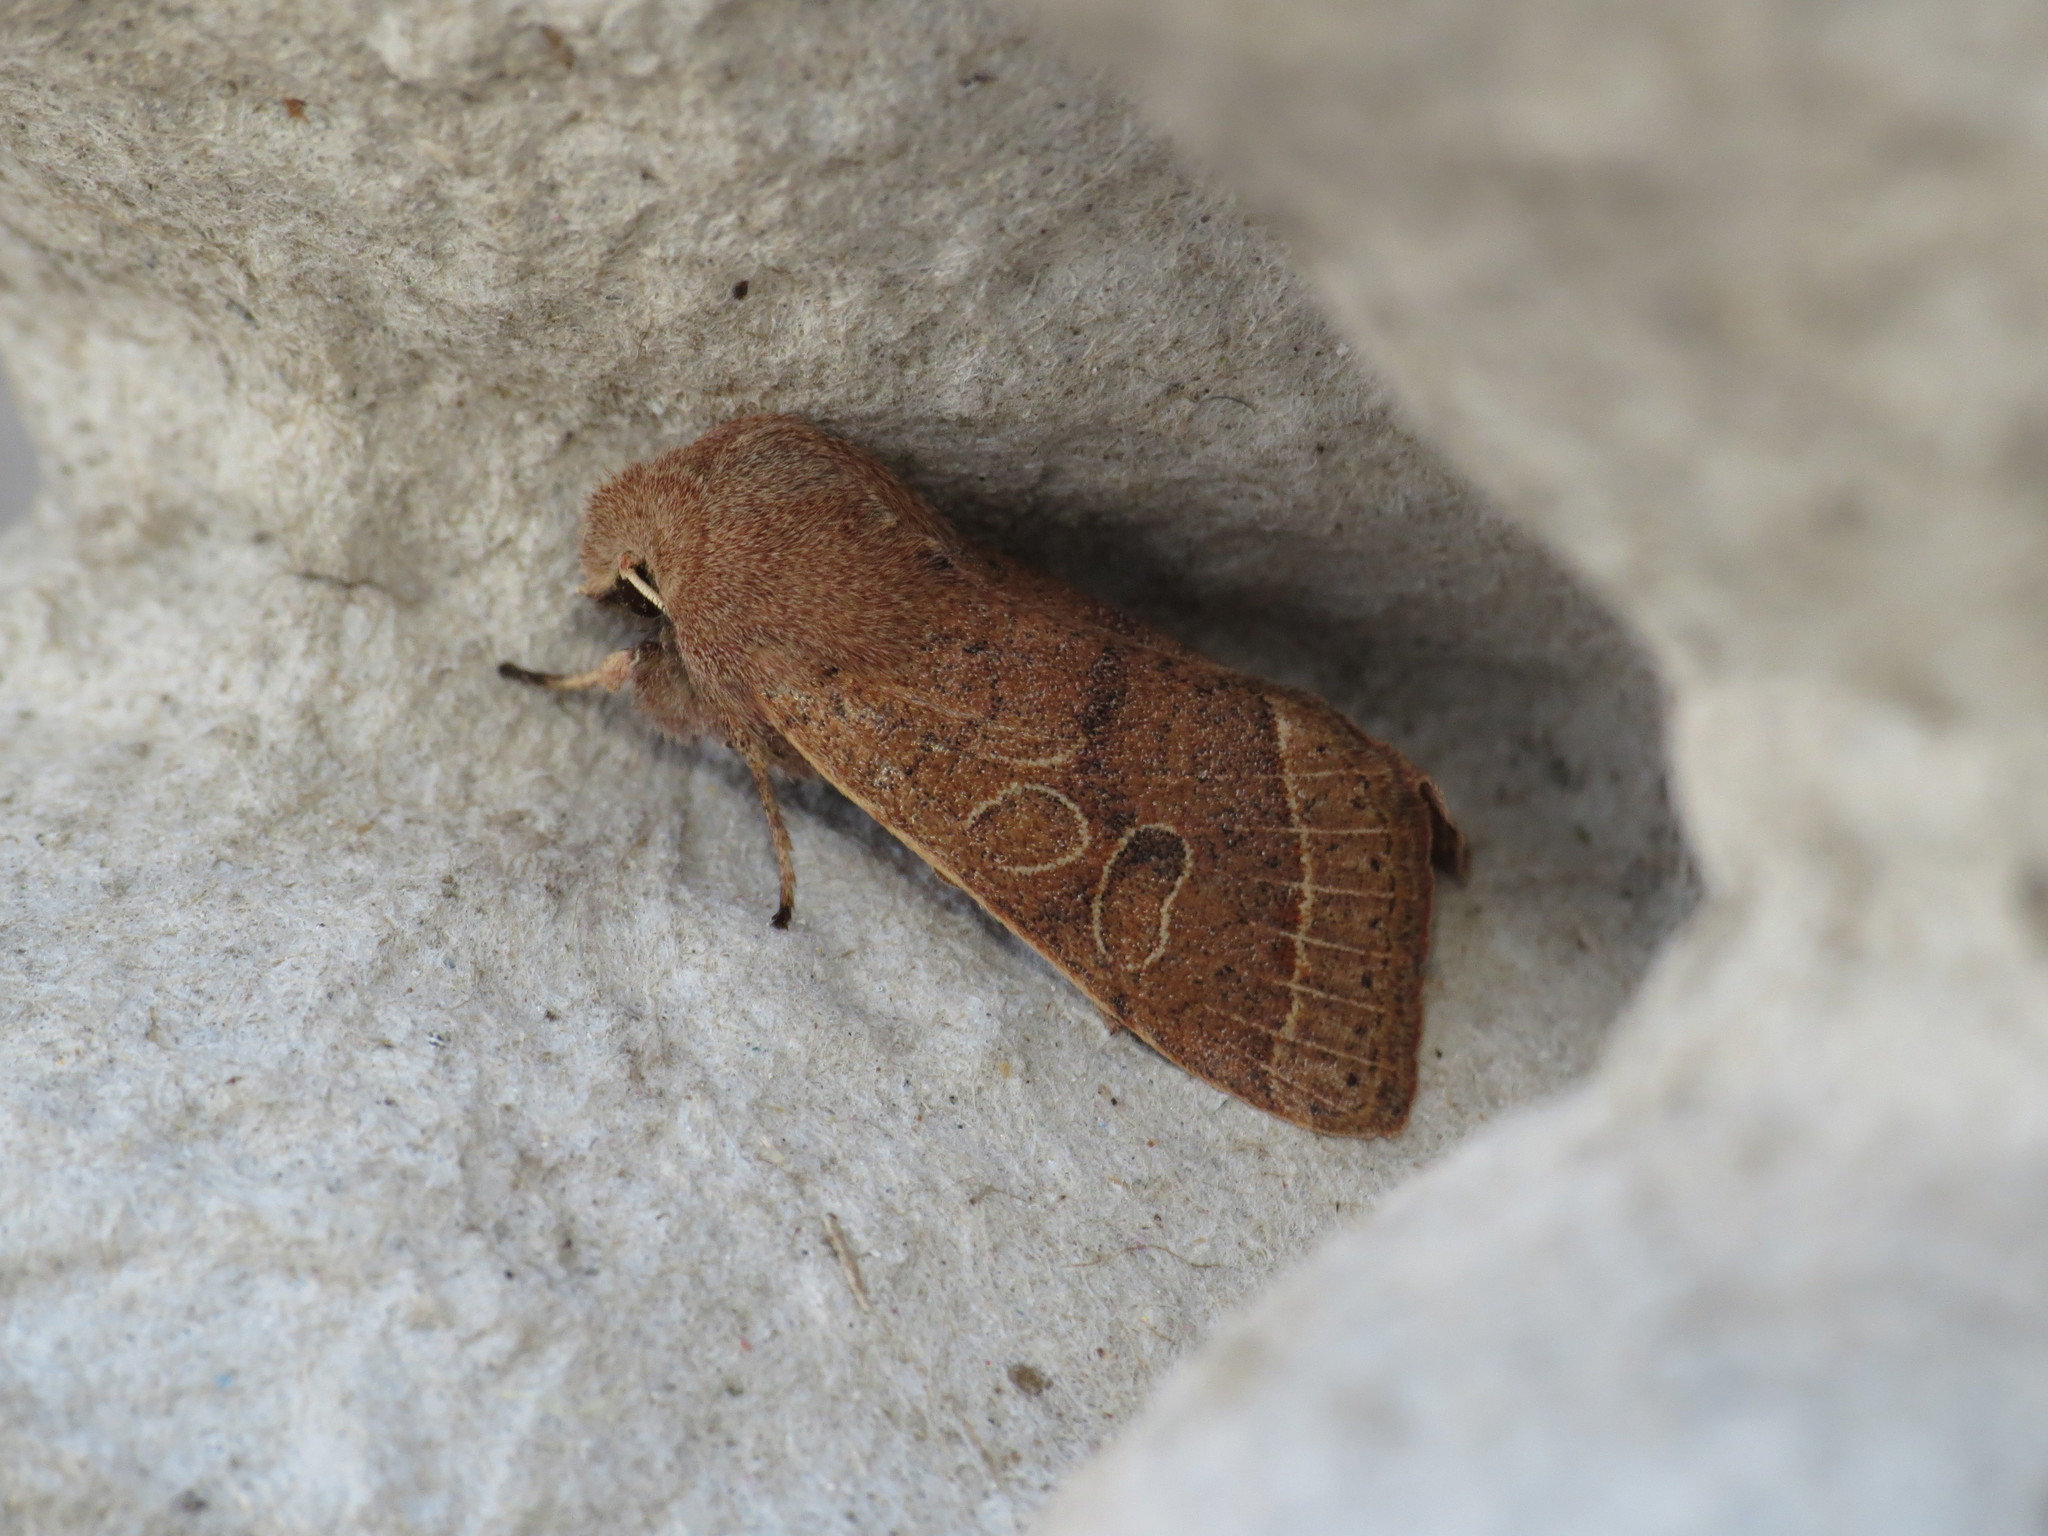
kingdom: Animalia
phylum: Arthropoda
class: Insecta
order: Lepidoptera
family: Noctuidae
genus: Orthosia
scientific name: Orthosia cerasi
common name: Common quaker
